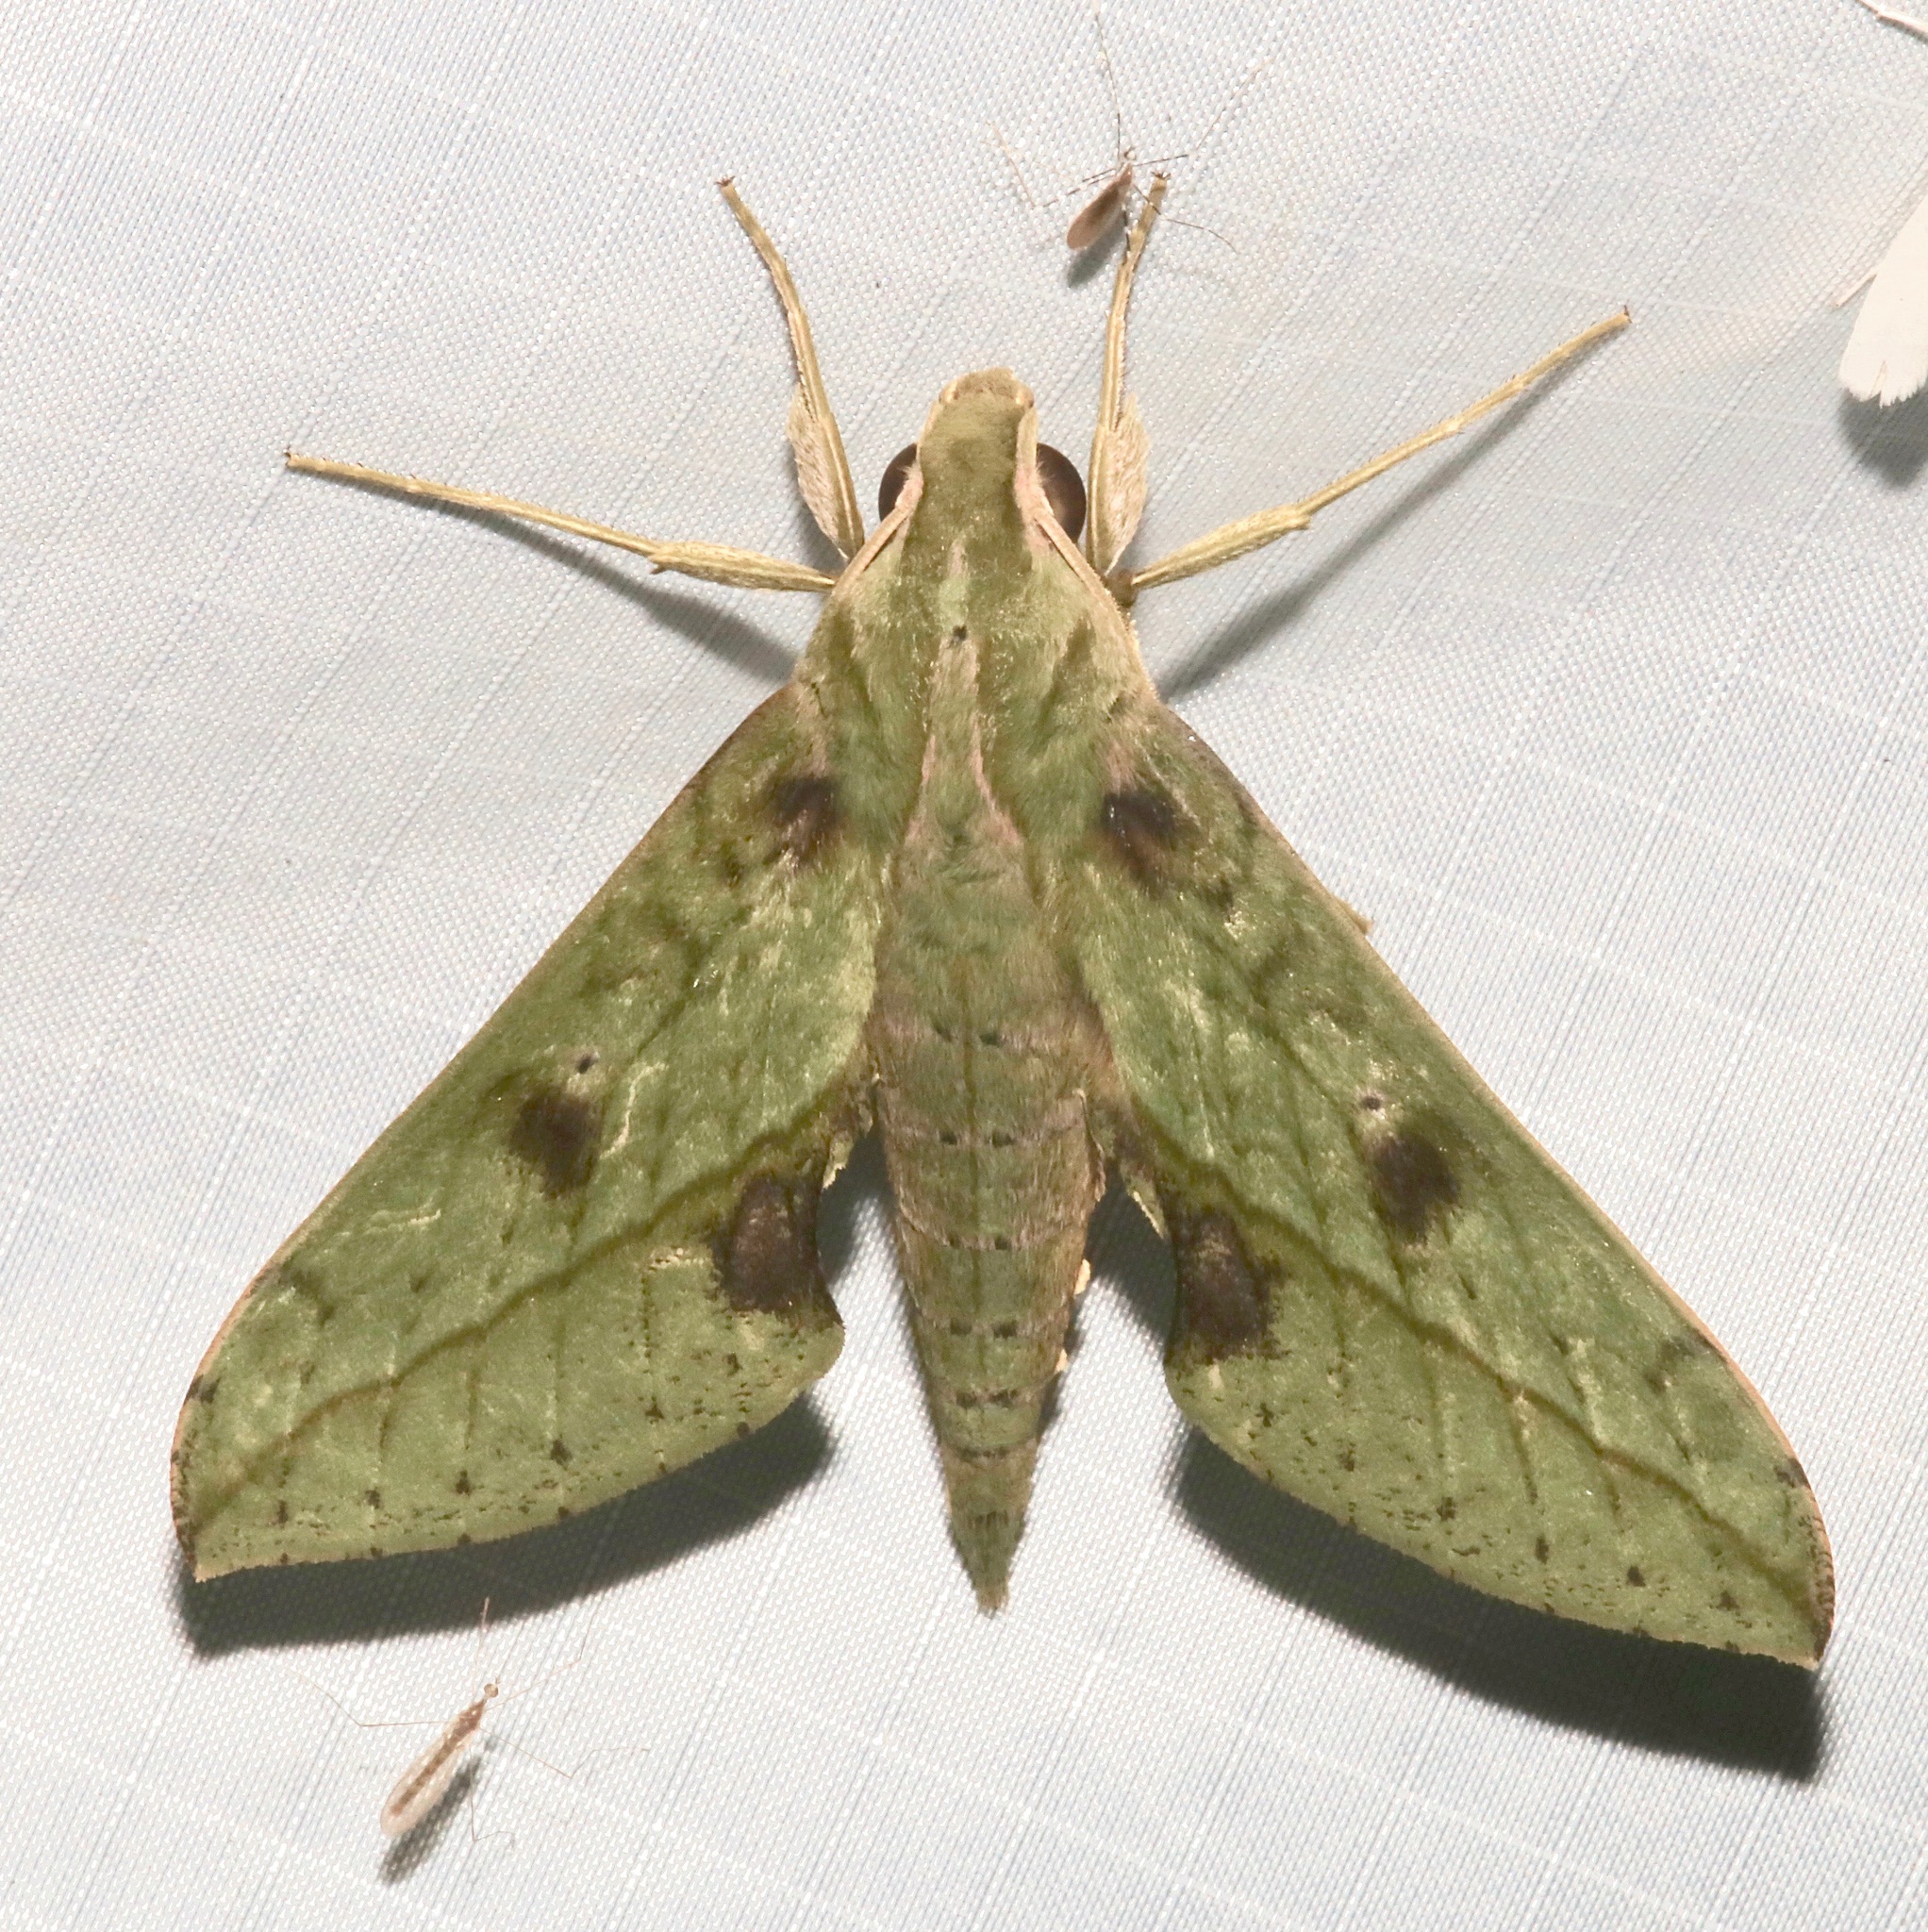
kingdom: Animalia
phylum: Arthropoda
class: Insecta
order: Lepidoptera
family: Sphingidae
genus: Xylophanes
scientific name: Xylophanes macasensis
